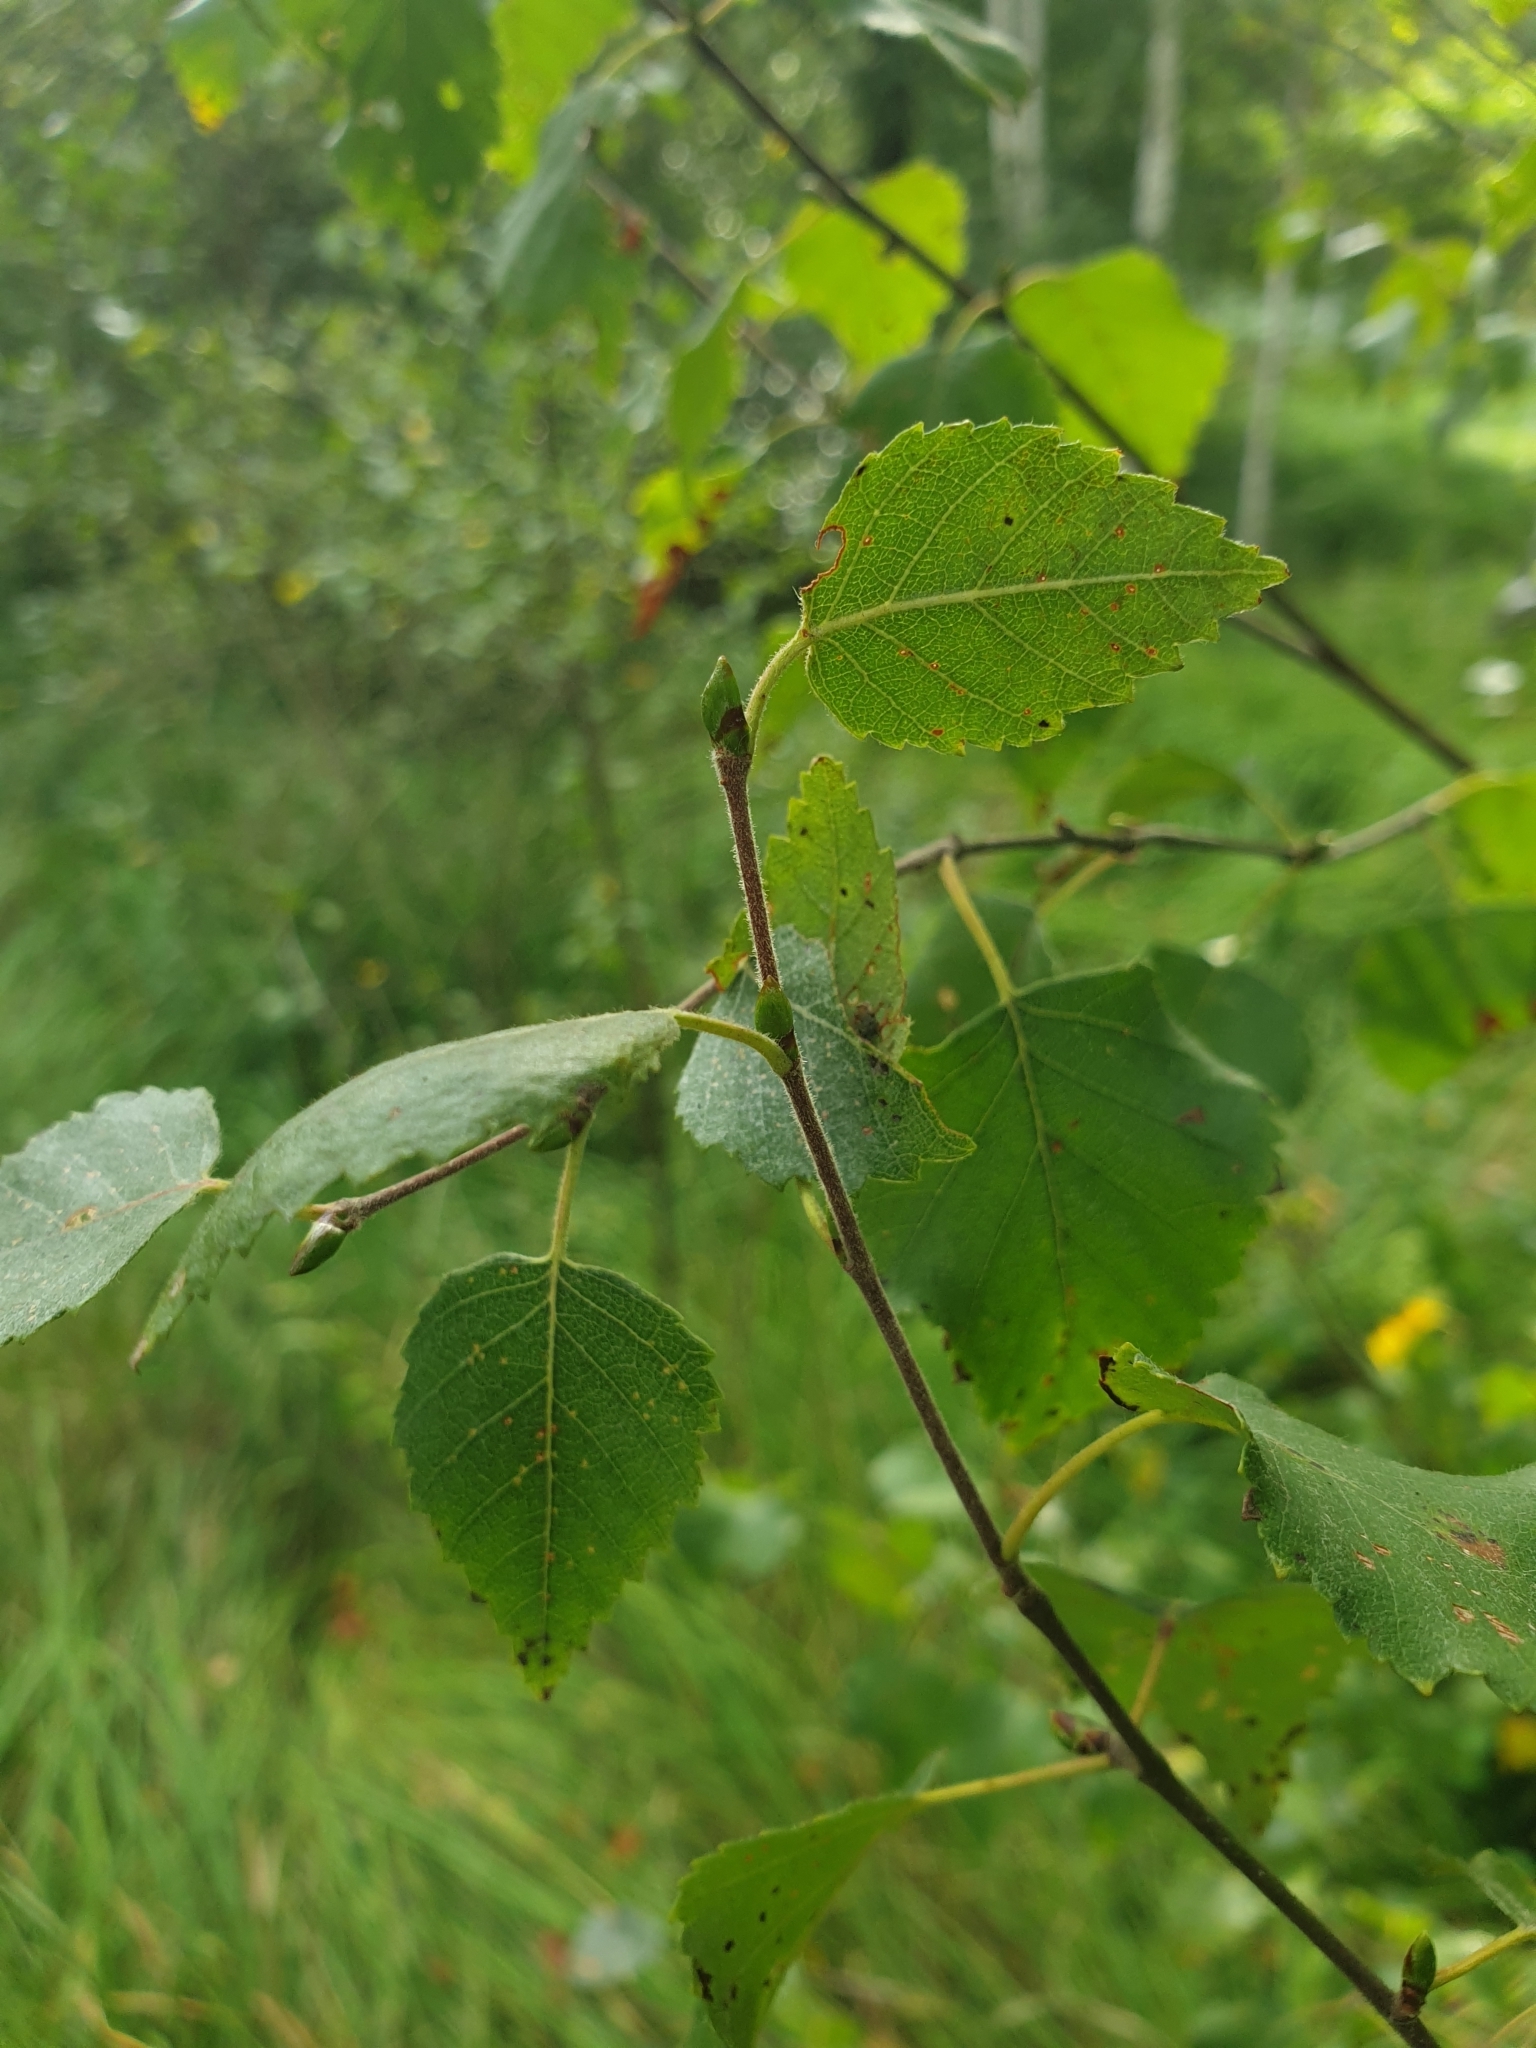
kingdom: Plantae
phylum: Tracheophyta
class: Magnoliopsida
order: Fagales
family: Betulaceae
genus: Betula
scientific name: Betula pubescens
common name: Downy birch
